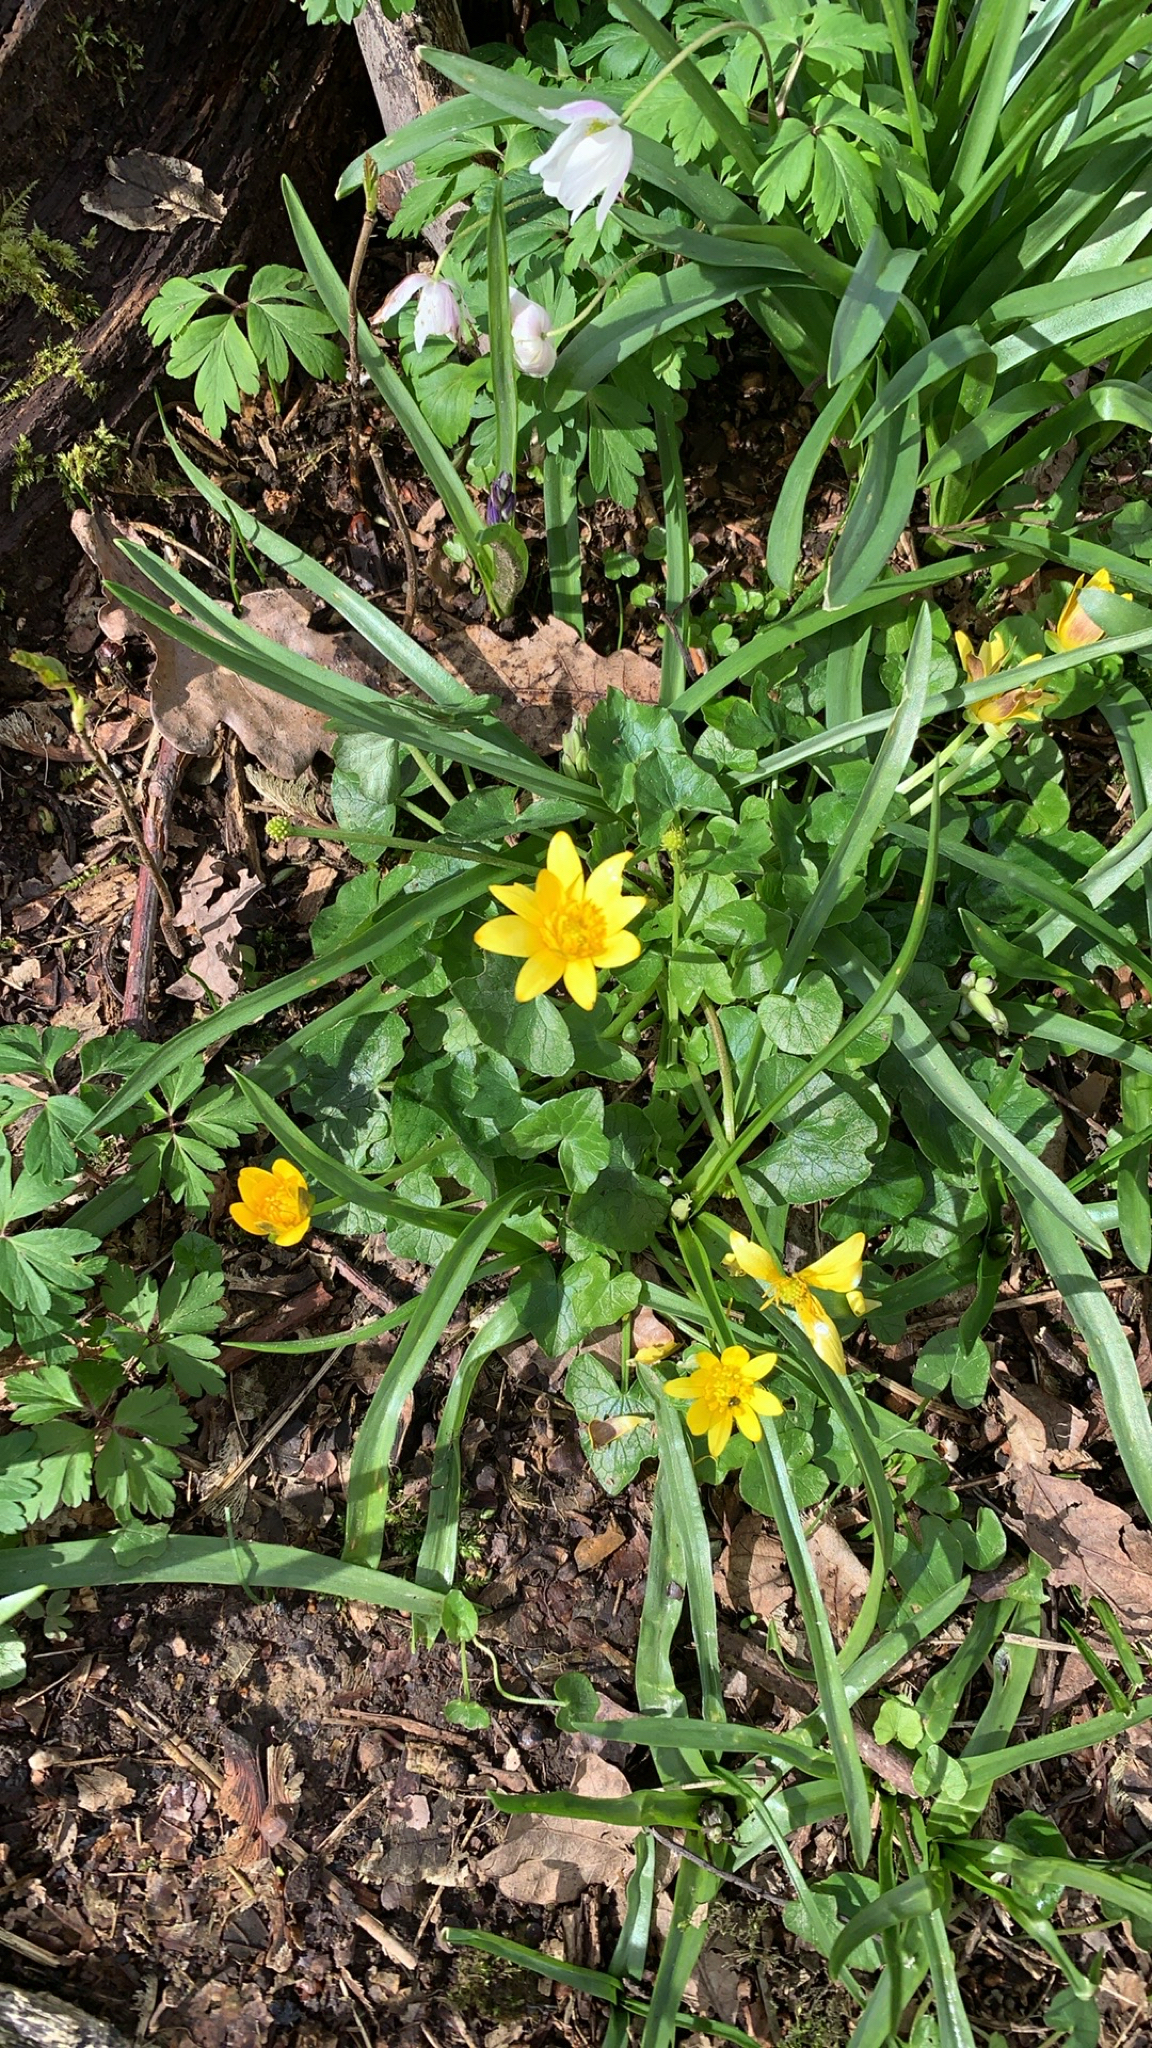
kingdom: Plantae
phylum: Tracheophyta
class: Magnoliopsida
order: Ranunculales
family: Ranunculaceae
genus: Ficaria
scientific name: Ficaria verna
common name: Lesser celandine
